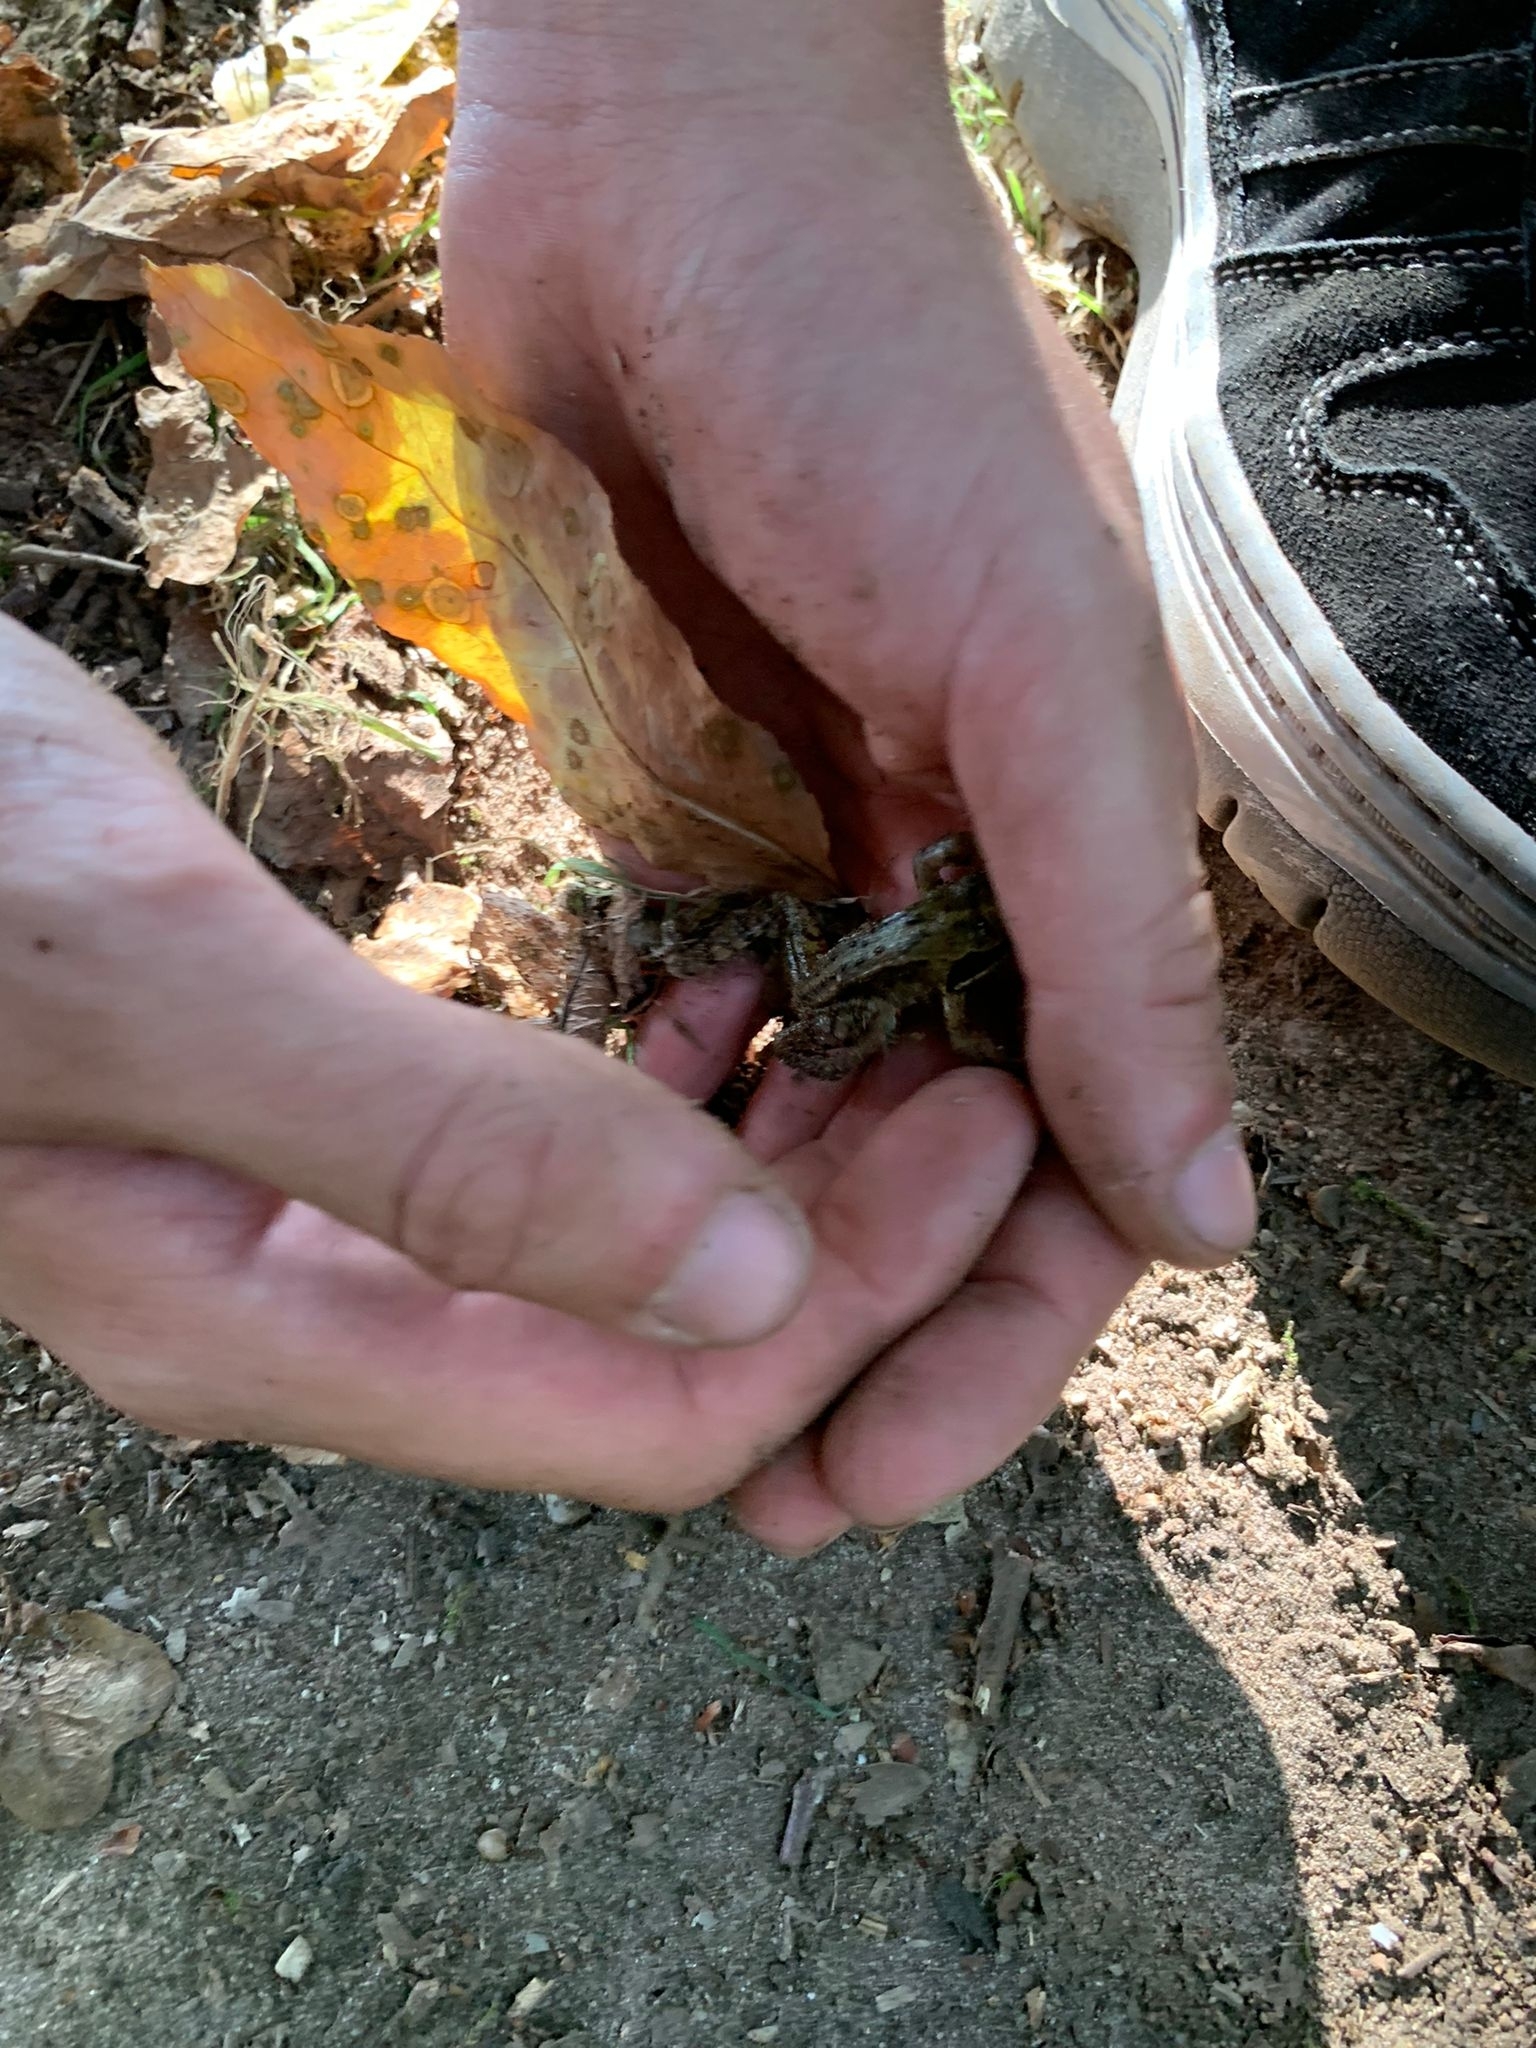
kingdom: Animalia
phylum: Chordata
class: Amphibia
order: Anura
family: Ranidae
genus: Rana
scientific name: Rana temporaria
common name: Common frog
